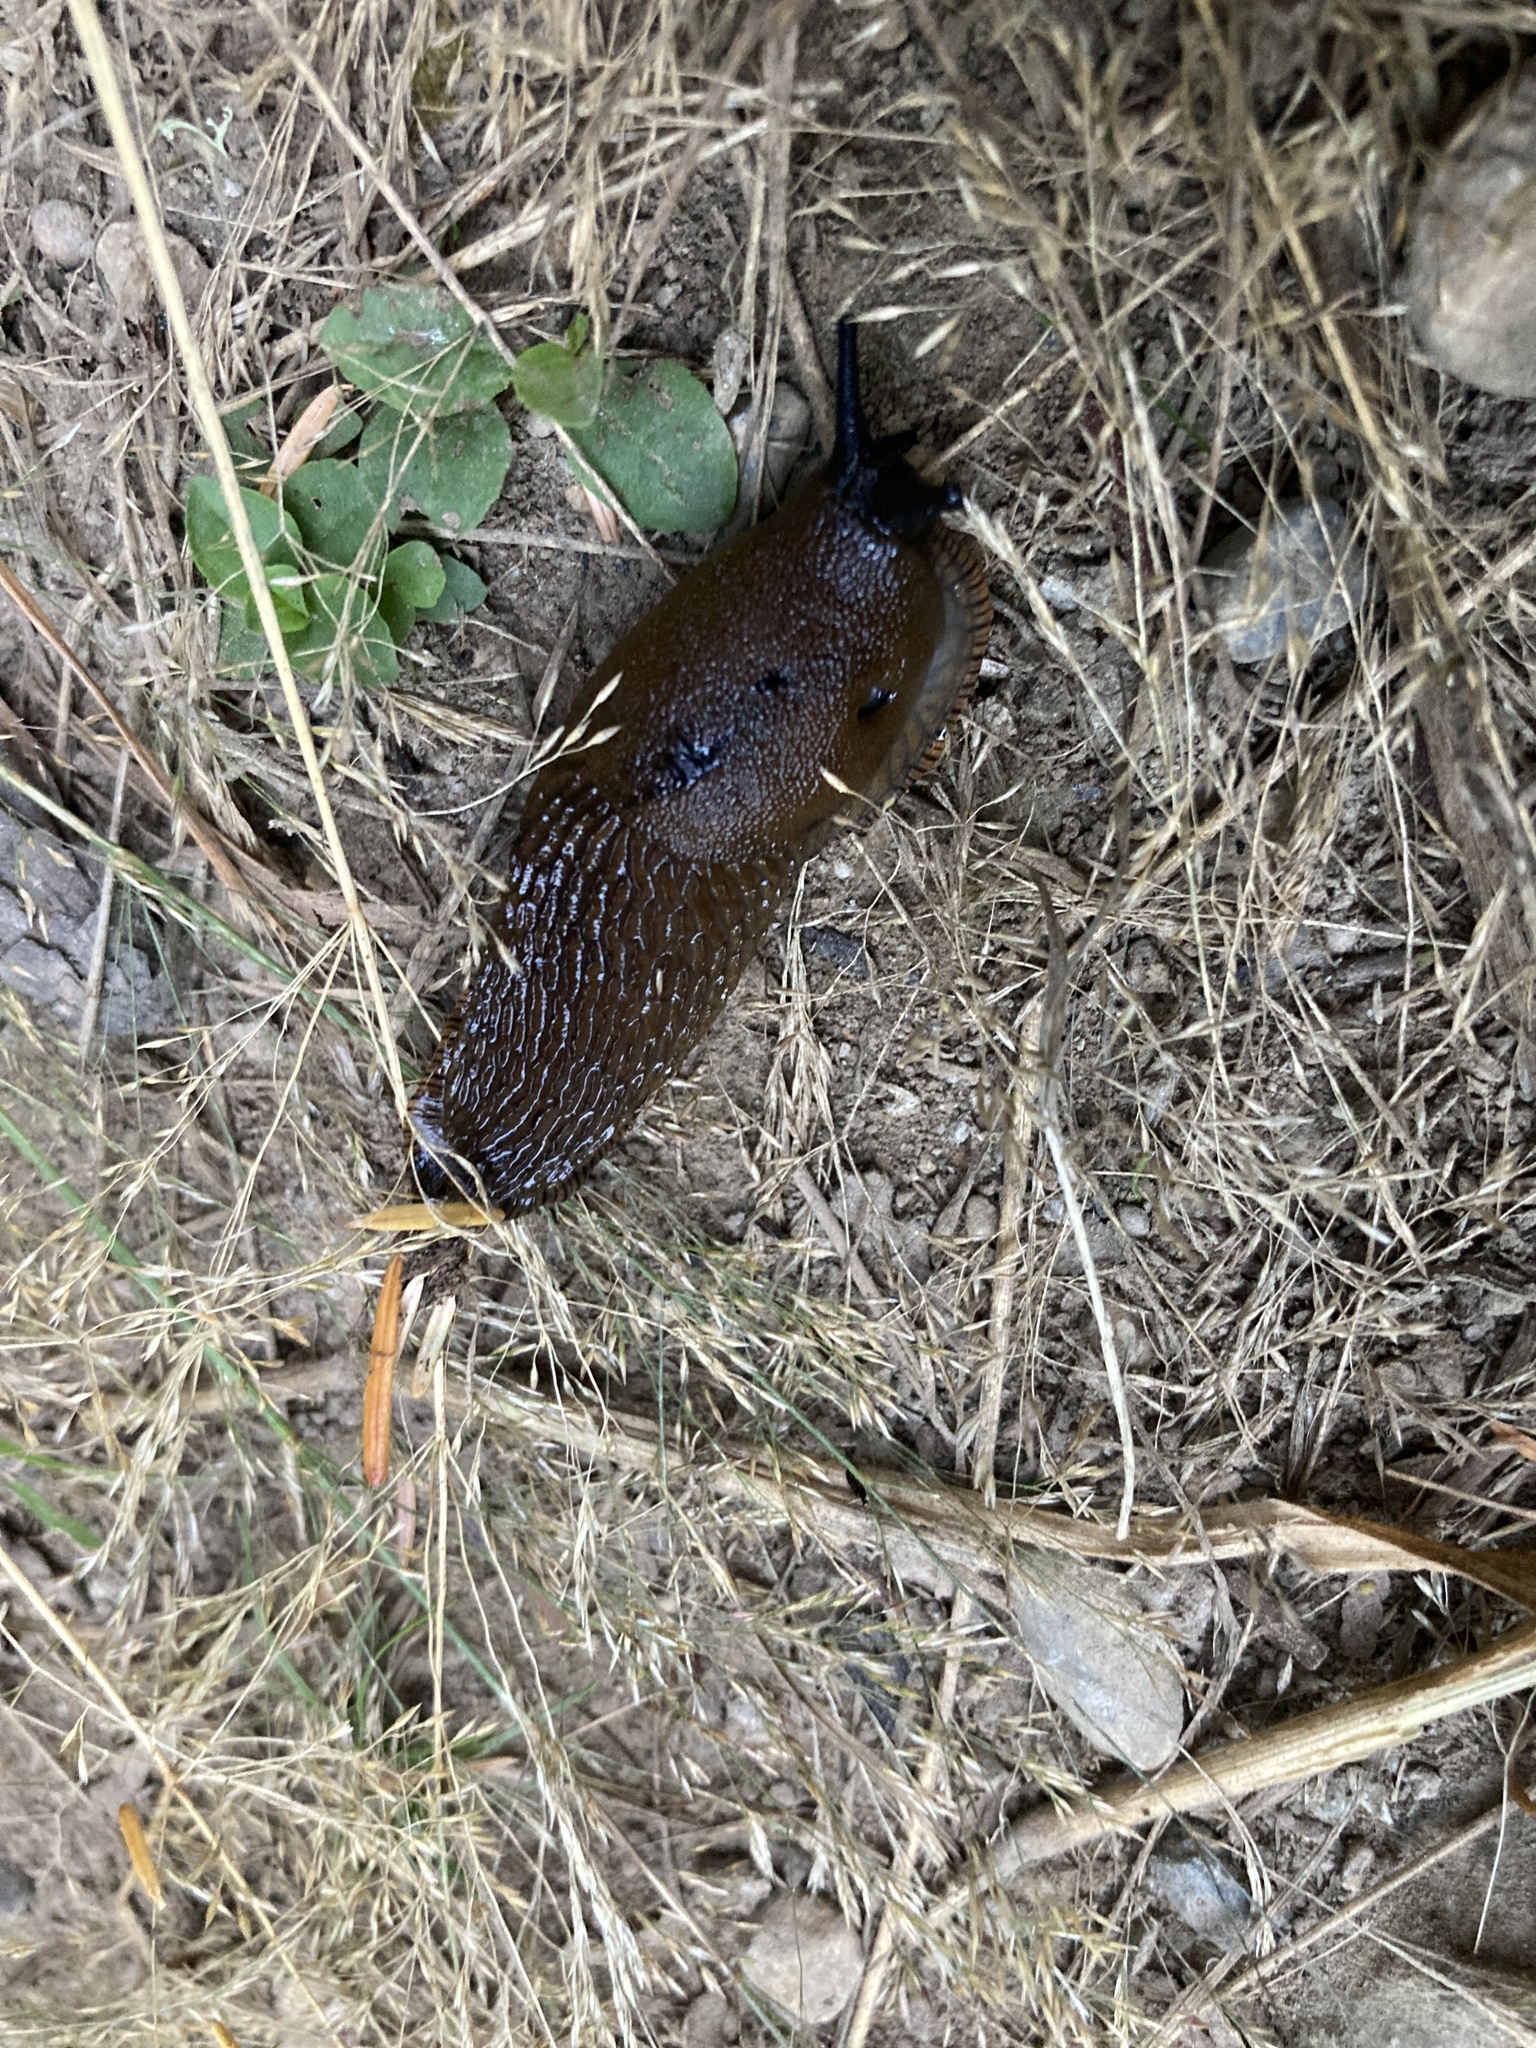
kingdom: Animalia
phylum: Mollusca
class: Gastropoda
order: Stylommatophora
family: Arionidae
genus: Arion
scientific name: Arion rufus
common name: Chocolate arion
